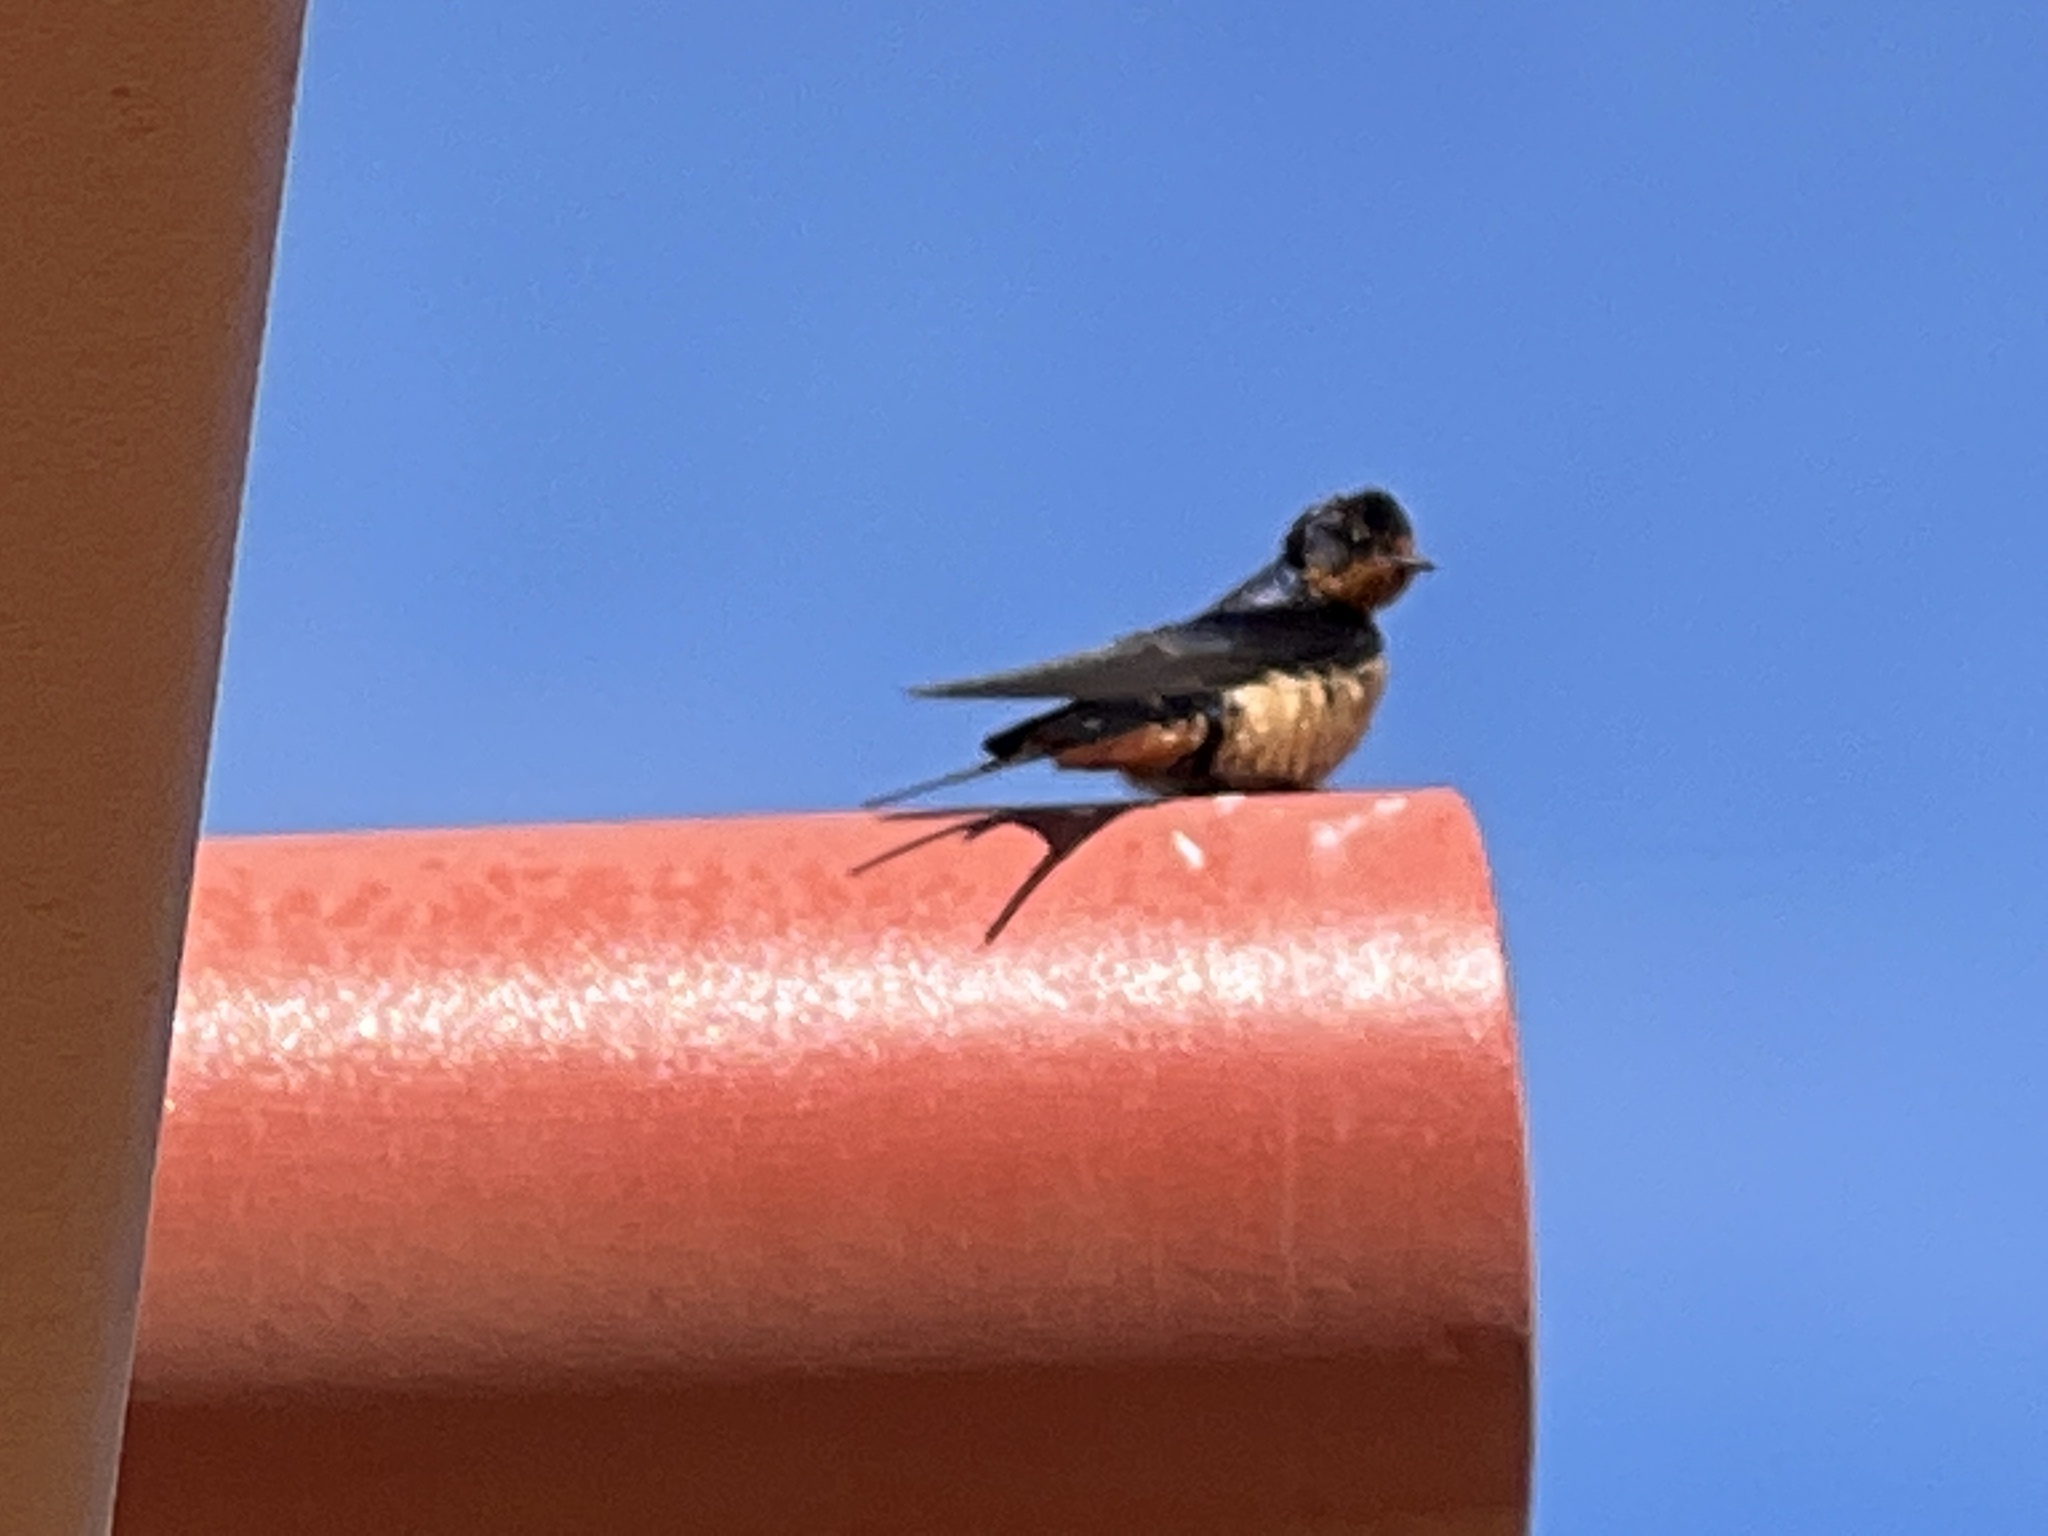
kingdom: Animalia
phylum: Chordata
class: Aves
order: Passeriformes
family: Hirundinidae
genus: Hirundo
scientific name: Hirundo rustica
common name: Barn swallow
